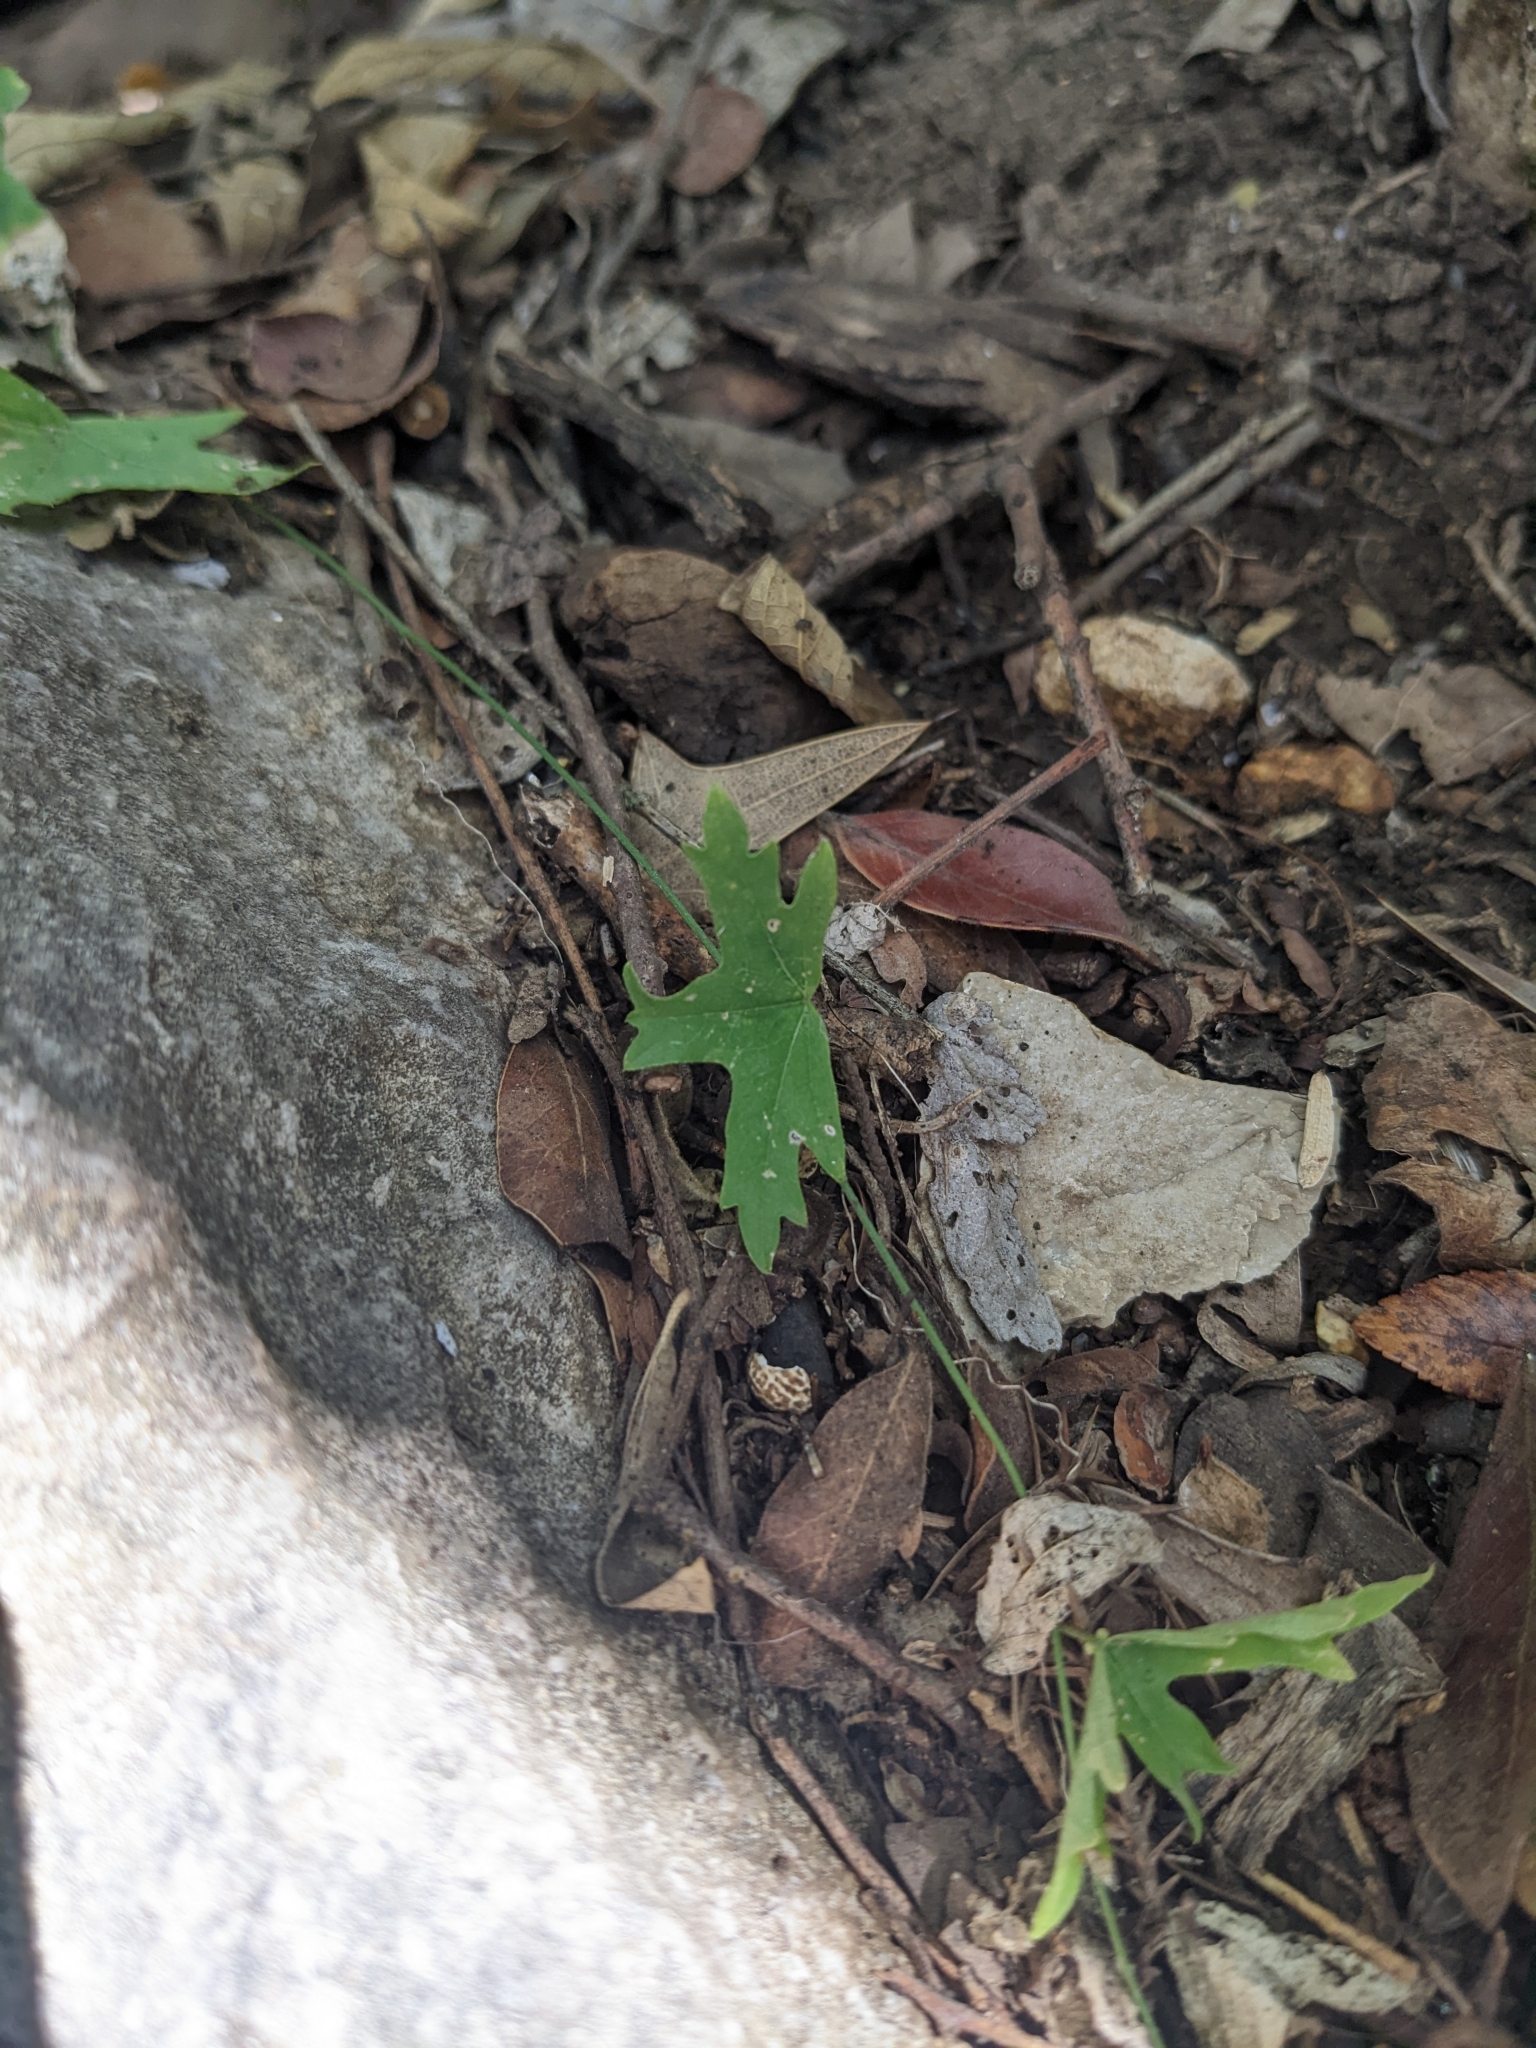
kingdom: Plantae
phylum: Tracheophyta
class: Magnoliopsida
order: Malpighiales
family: Passifloraceae
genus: Passiflora
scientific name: Passiflora tenuiloba
